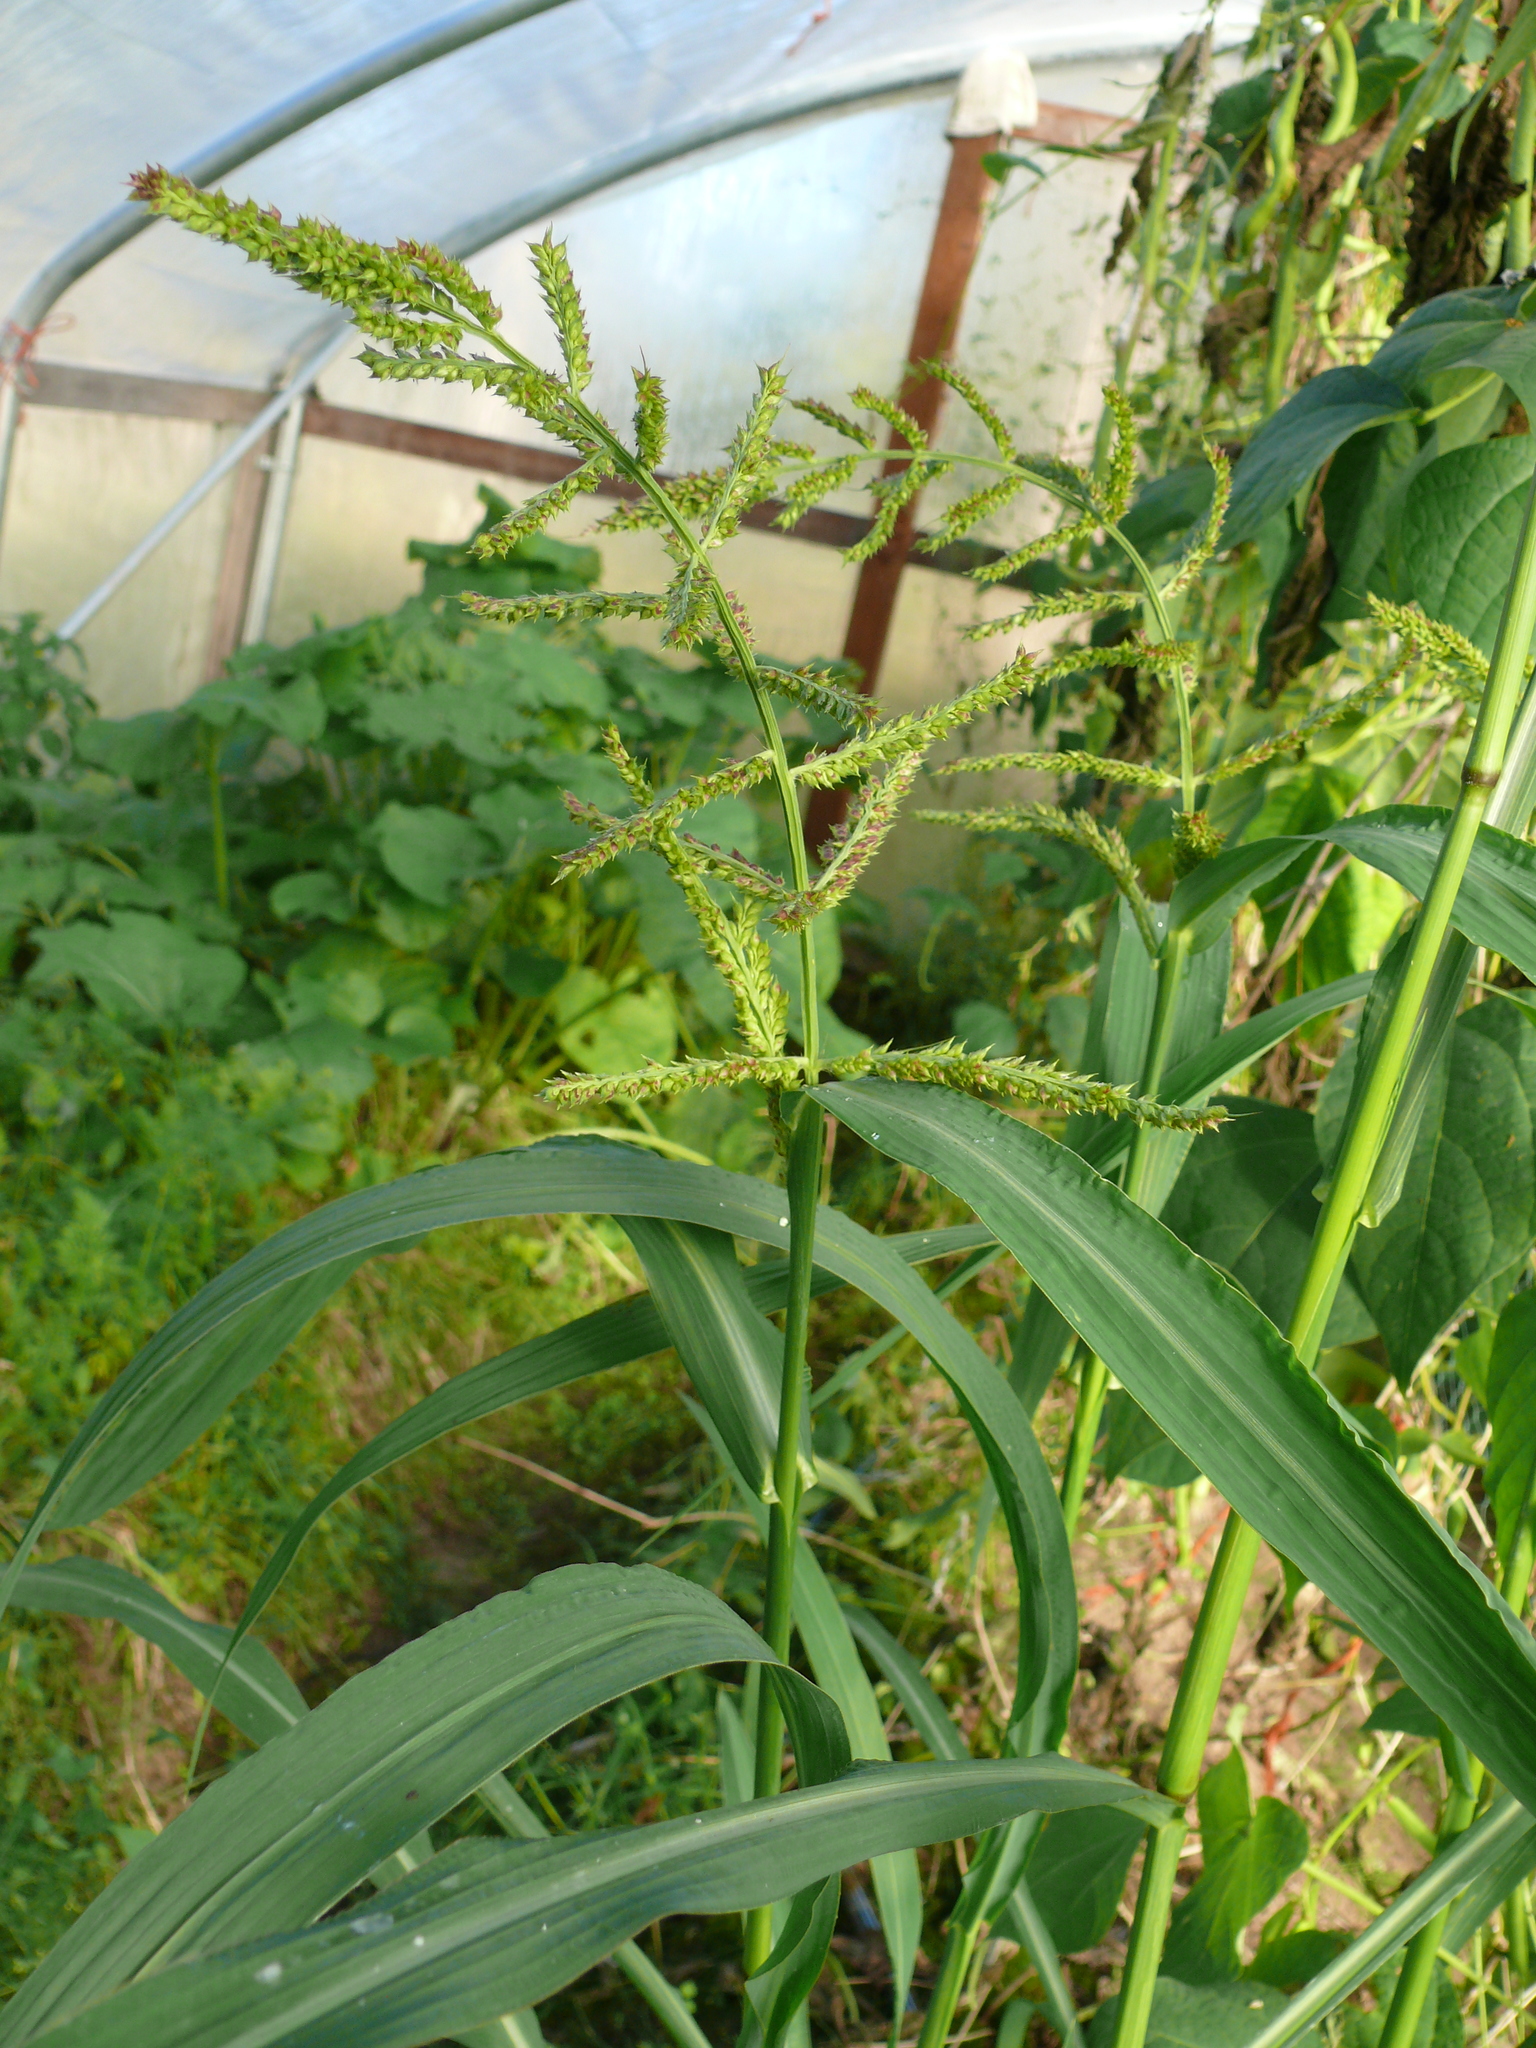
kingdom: Plantae
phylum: Tracheophyta
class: Liliopsida
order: Poales
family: Poaceae
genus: Echinochloa
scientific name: Echinochloa crus-galli
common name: Cockspur
